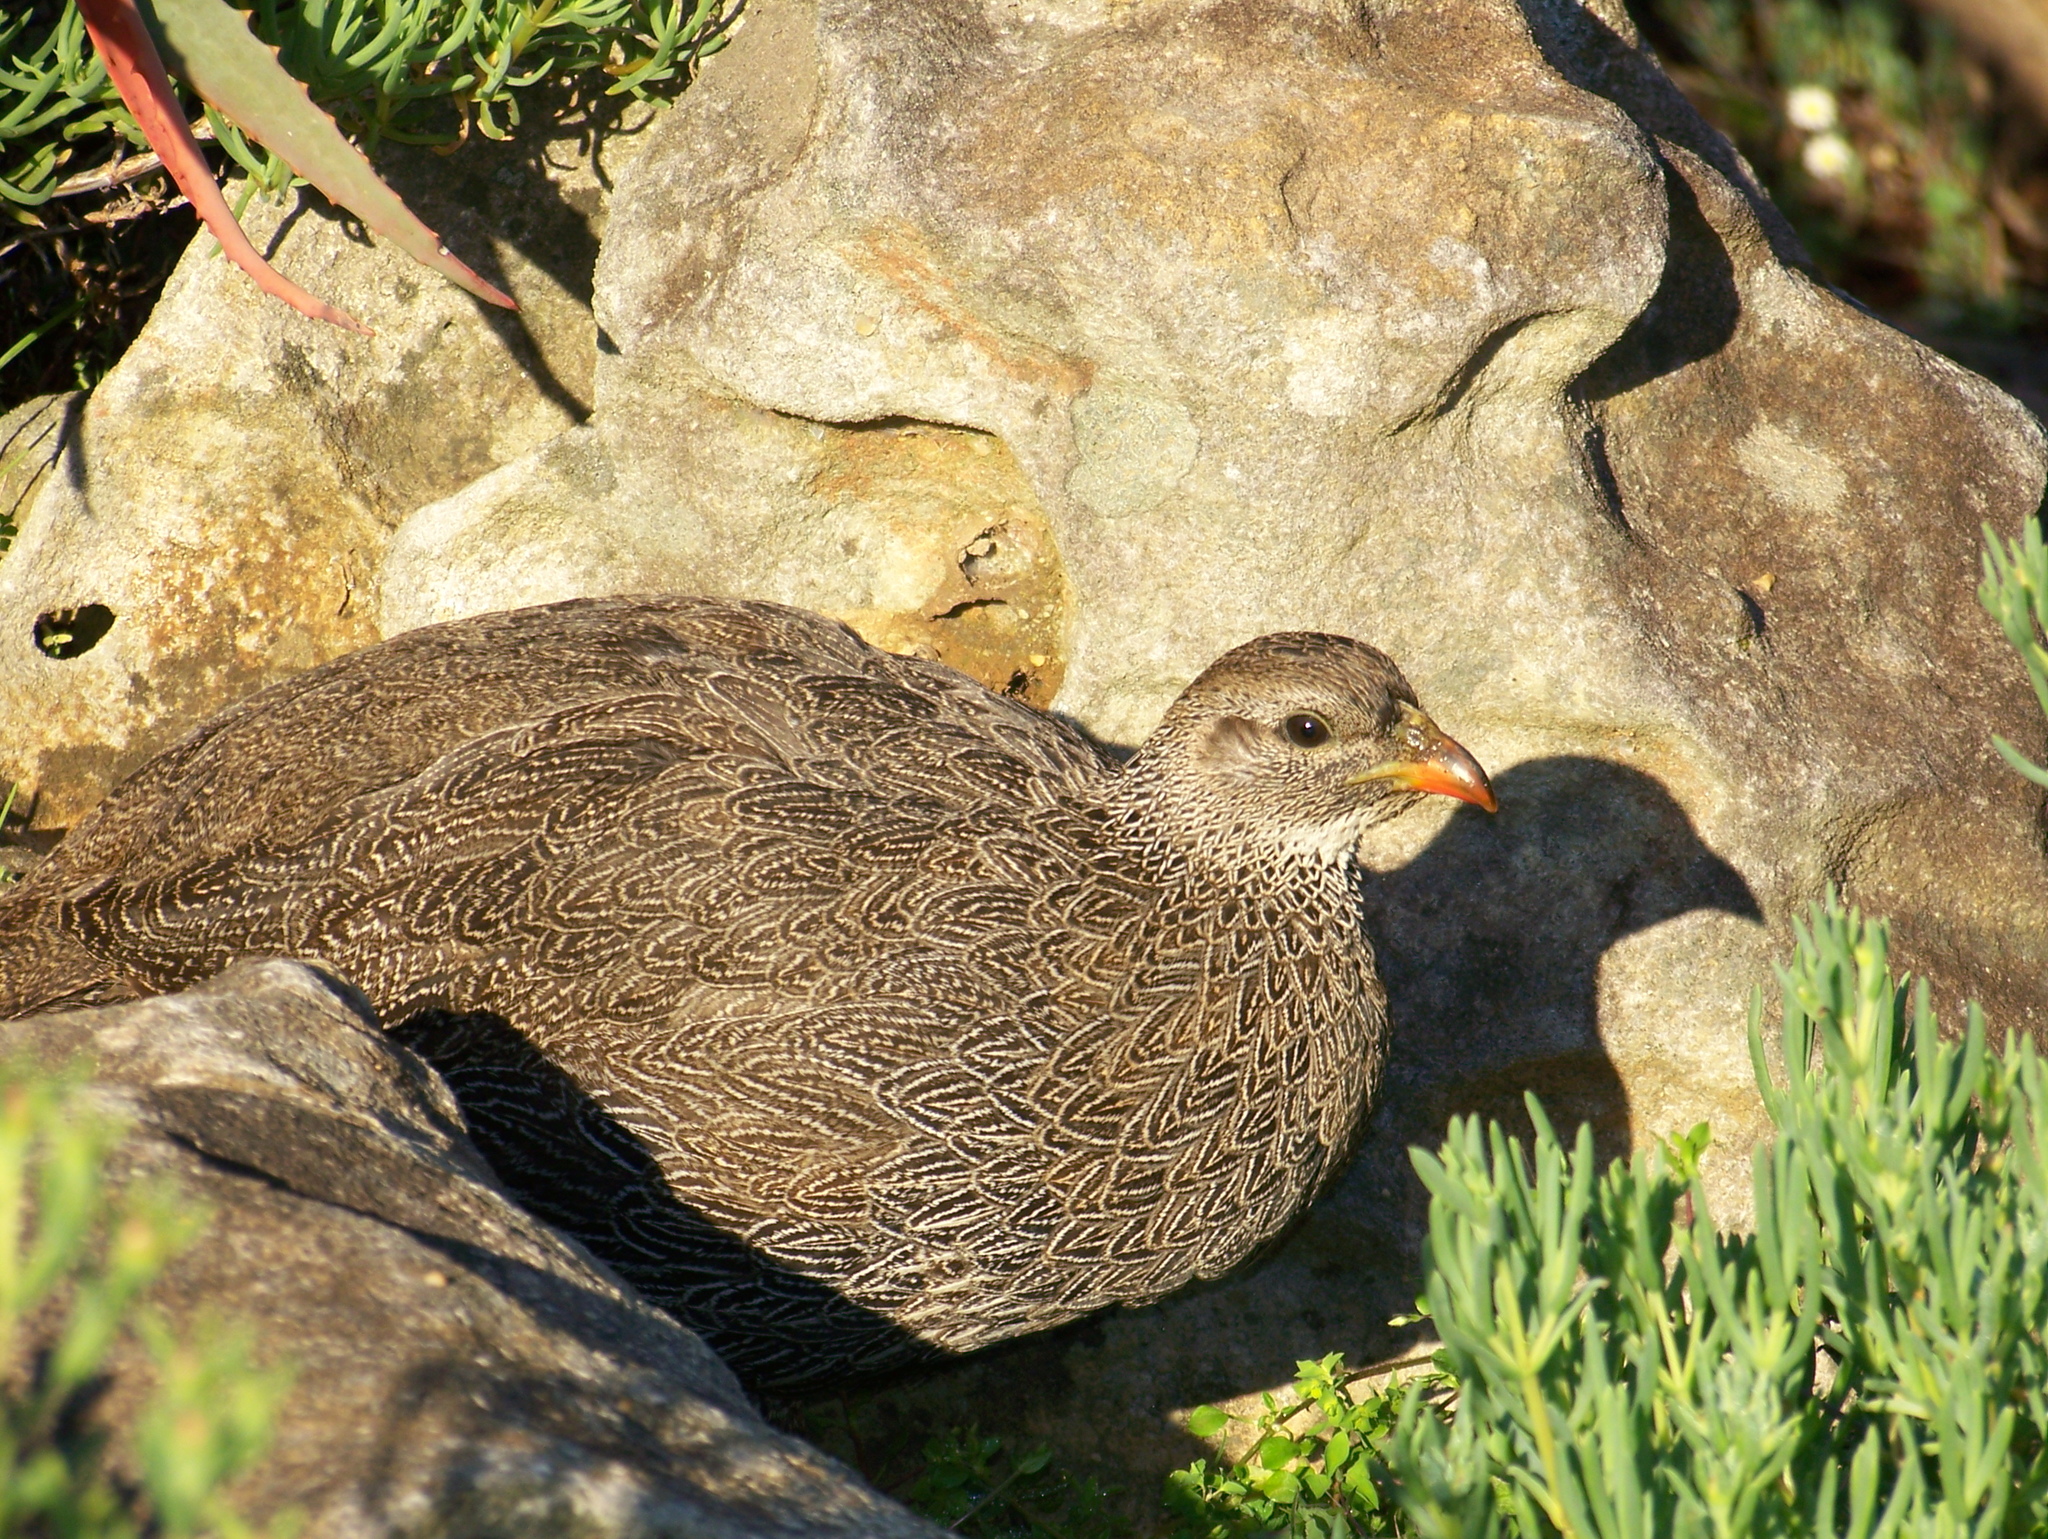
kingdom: Animalia
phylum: Chordata
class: Aves
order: Galliformes
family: Phasianidae
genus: Pternistis
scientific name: Pternistis capensis
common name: Cape spurfowl
